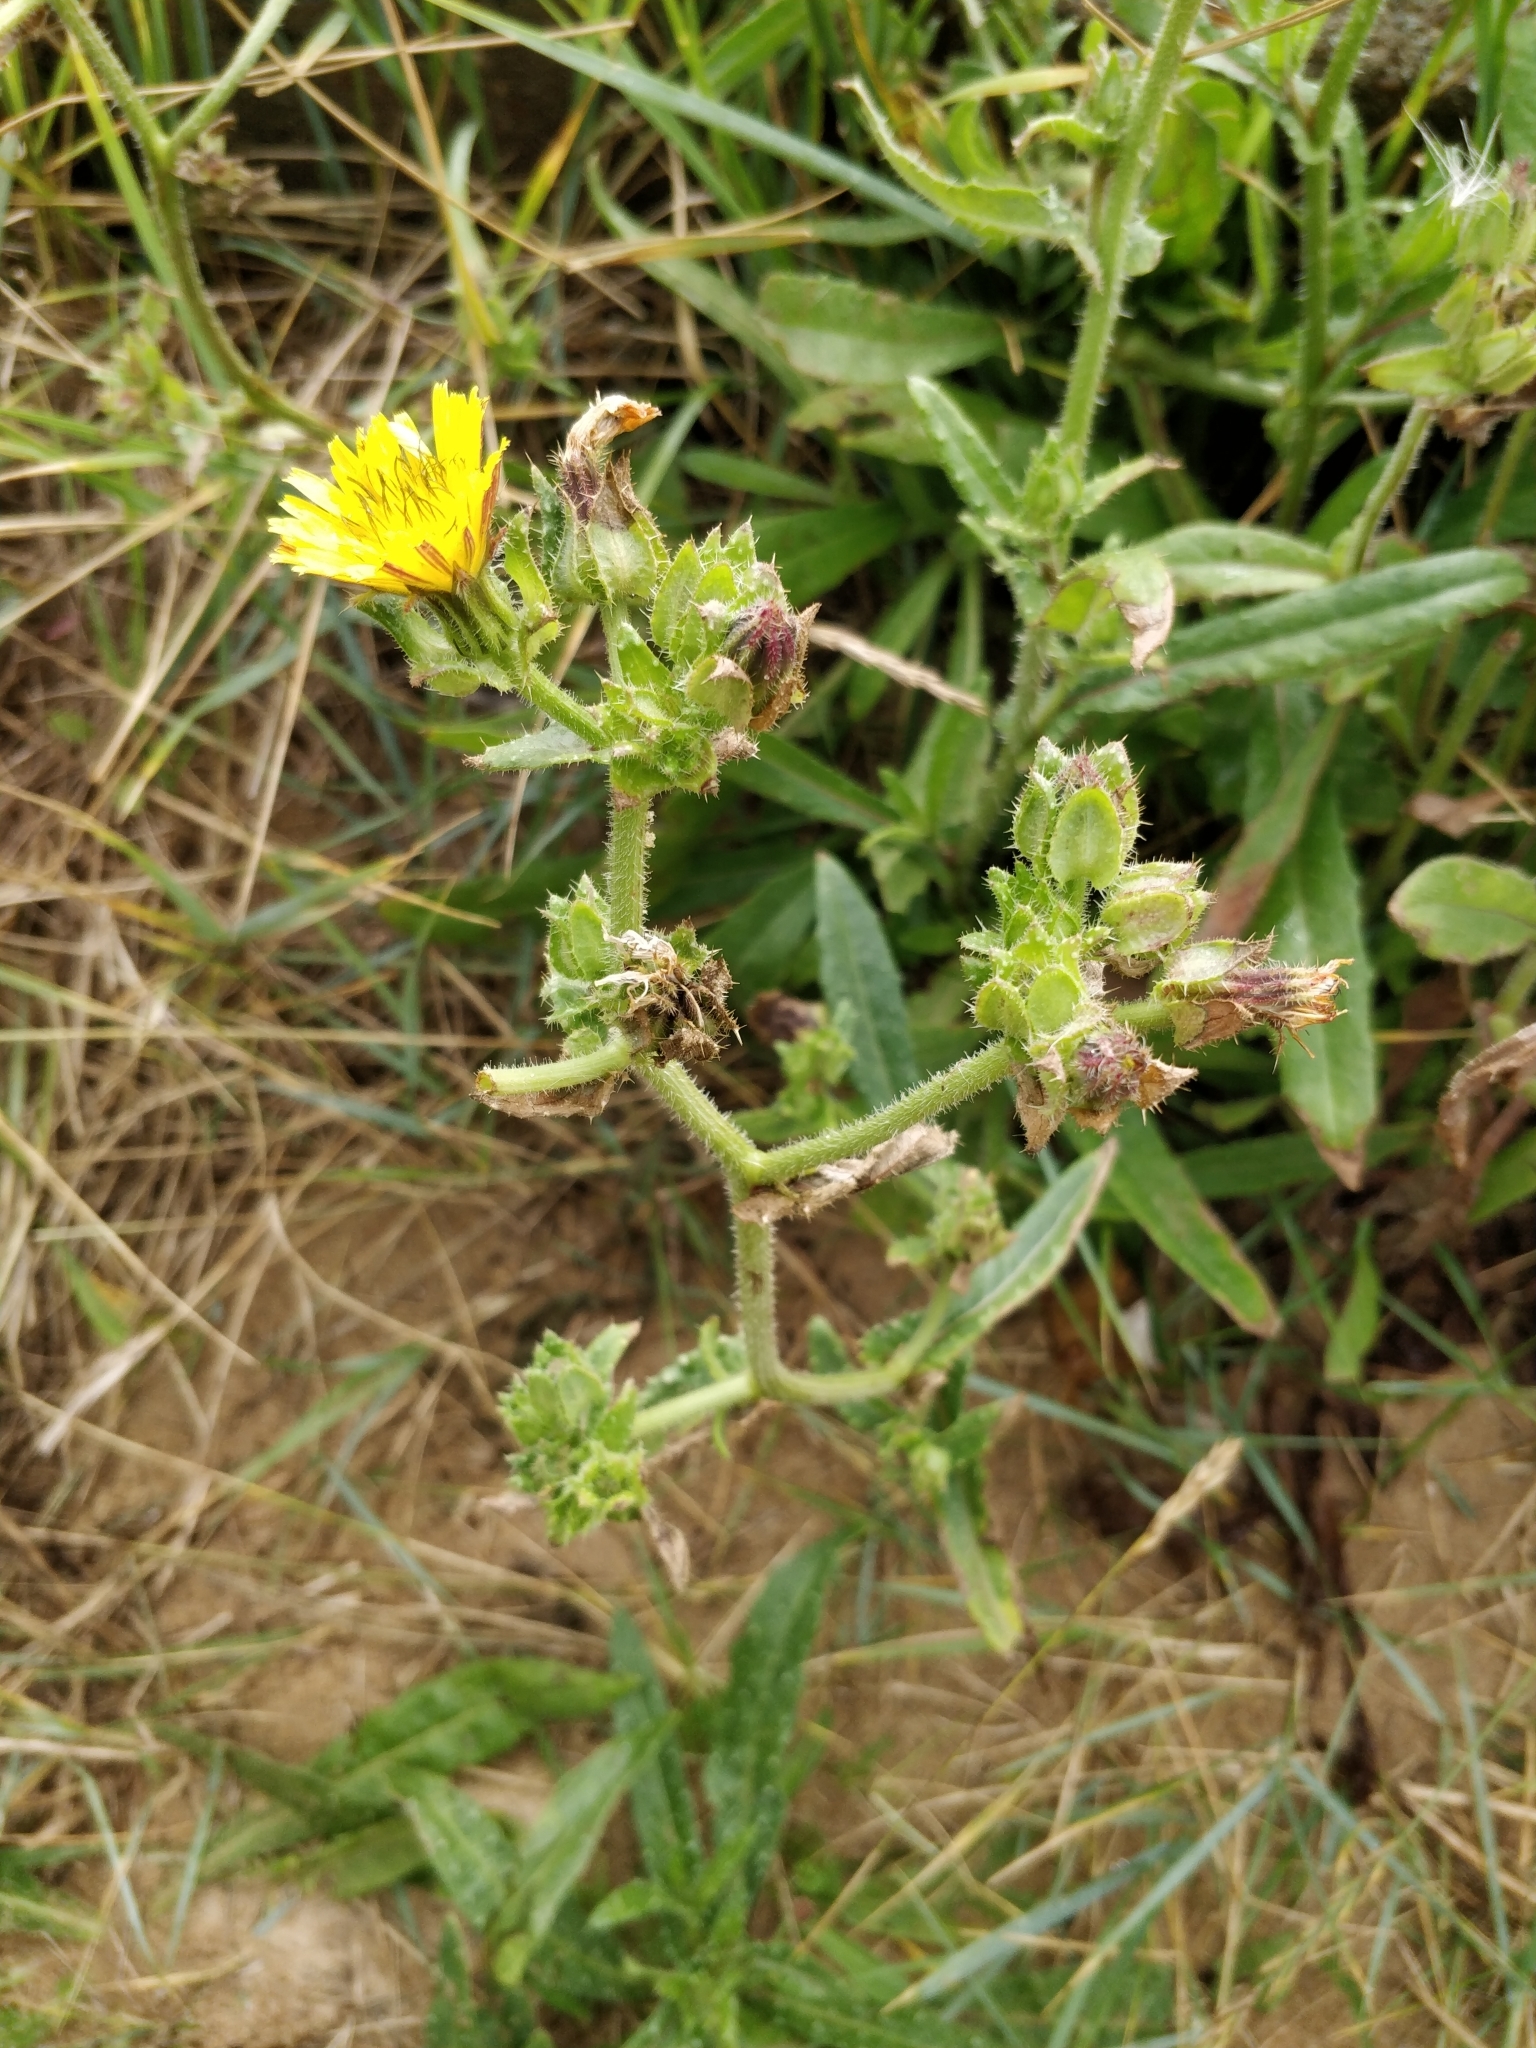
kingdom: Plantae
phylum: Tracheophyta
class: Magnoliopsida
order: Asterales
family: Asteraceae
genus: Helminthotheca
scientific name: Helminthotheca echioides
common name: Ox-tongue
